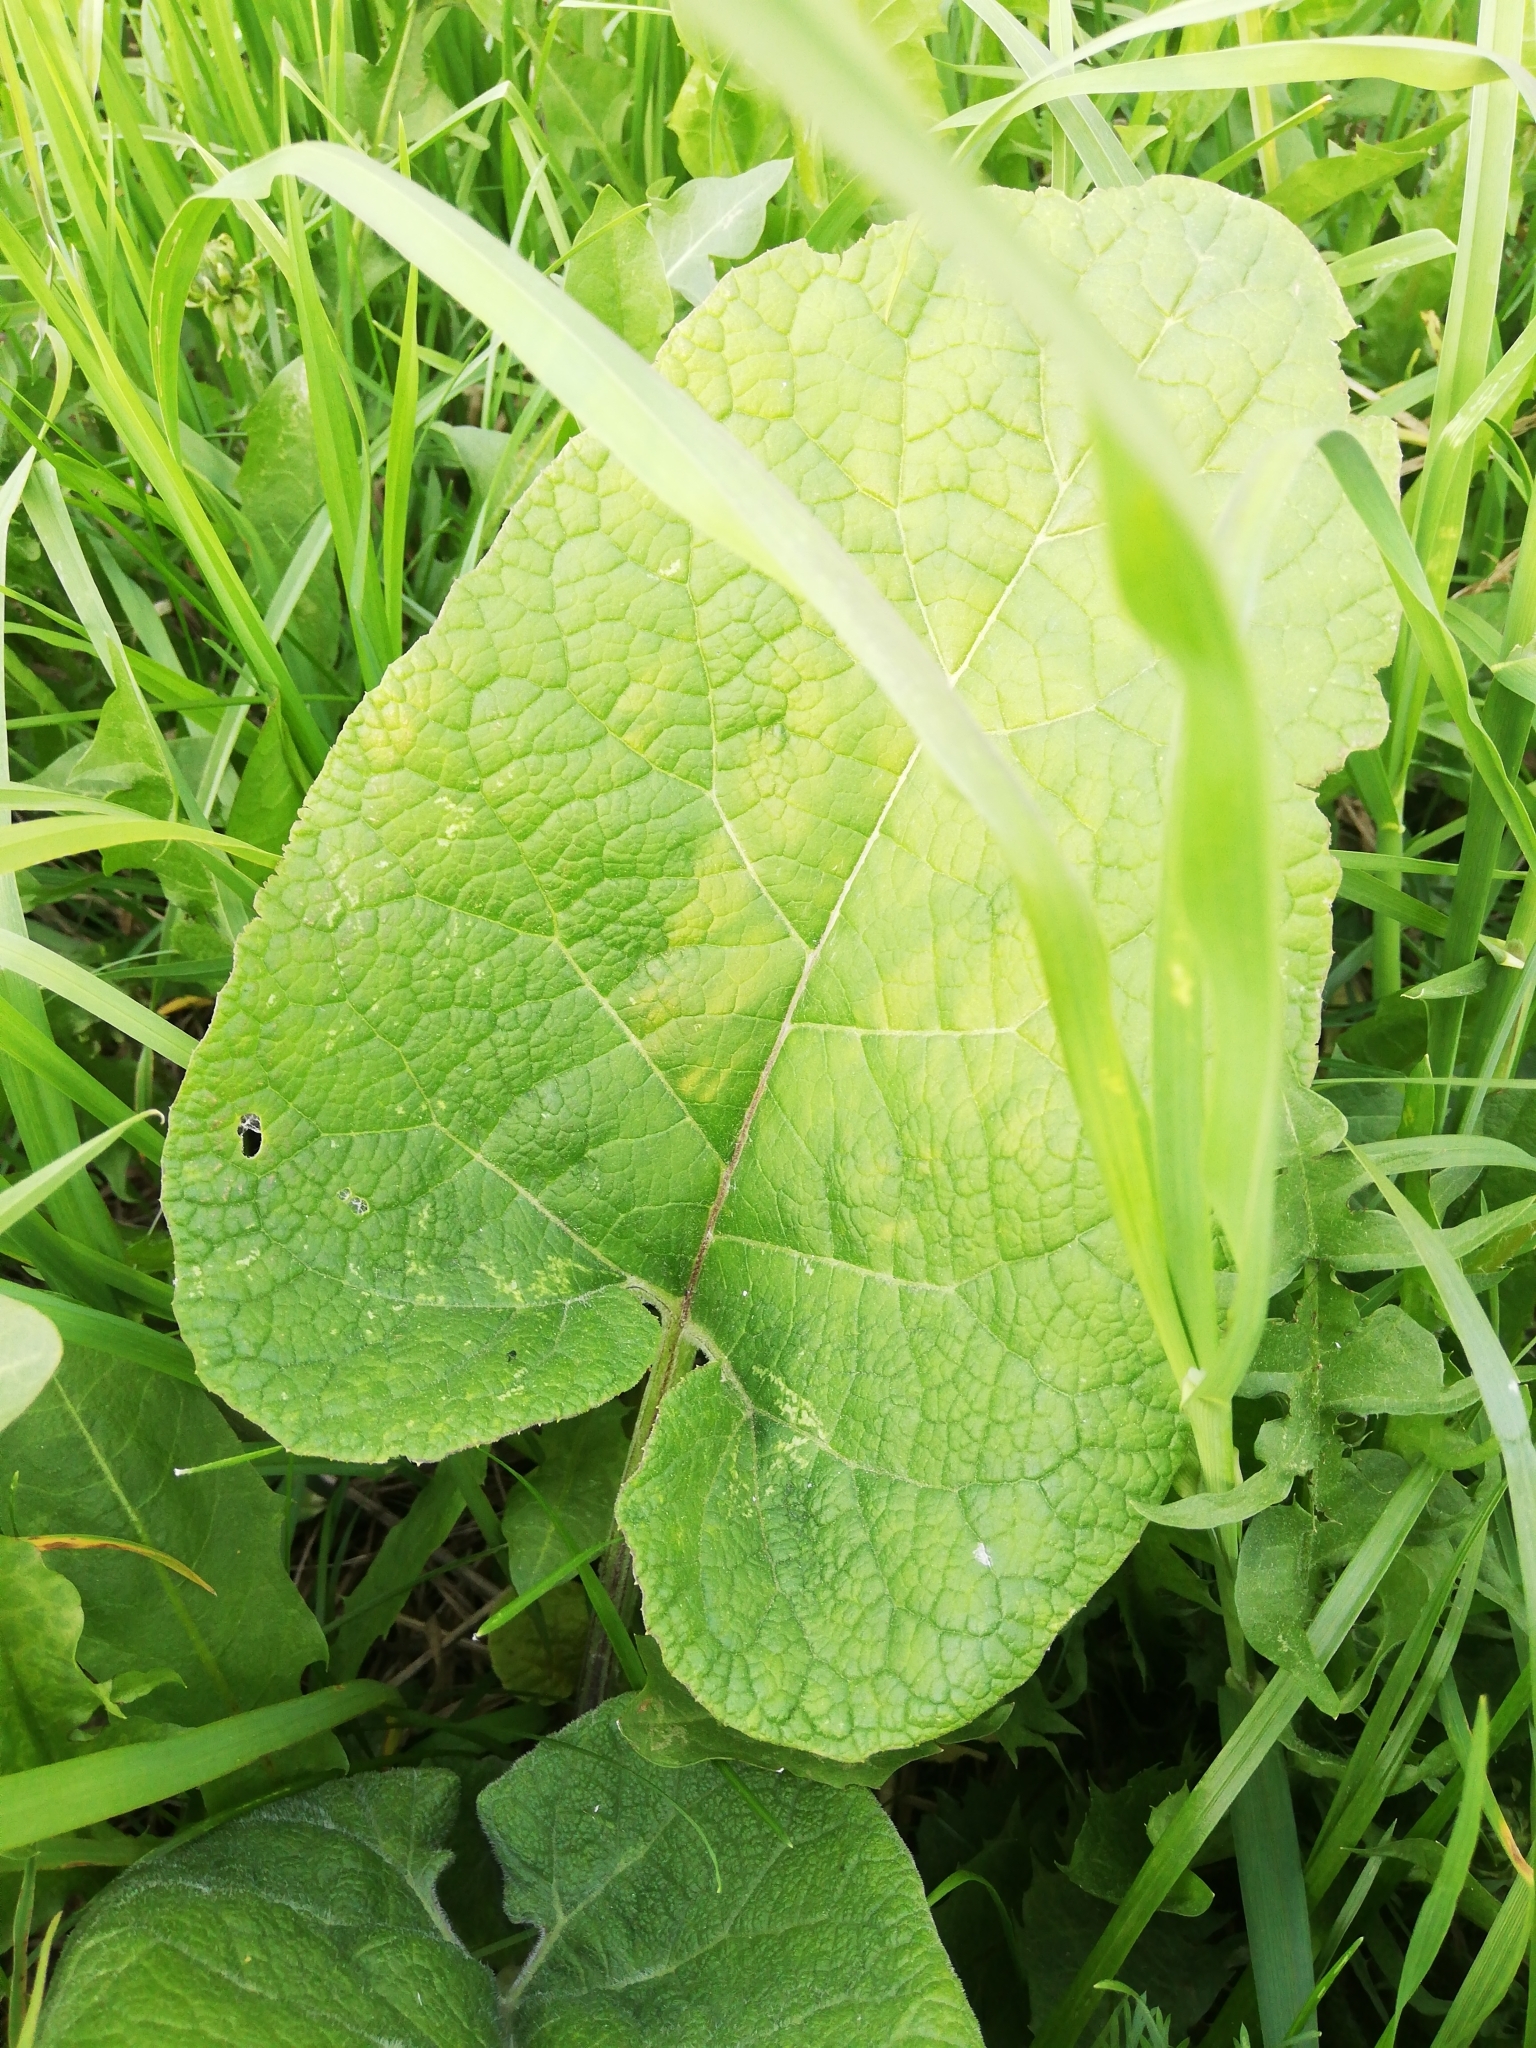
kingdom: Plantae
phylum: Tracheophyta
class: Magnoliopsida
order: Asterales
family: Asteraceae
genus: Arctium
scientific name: Arctium
